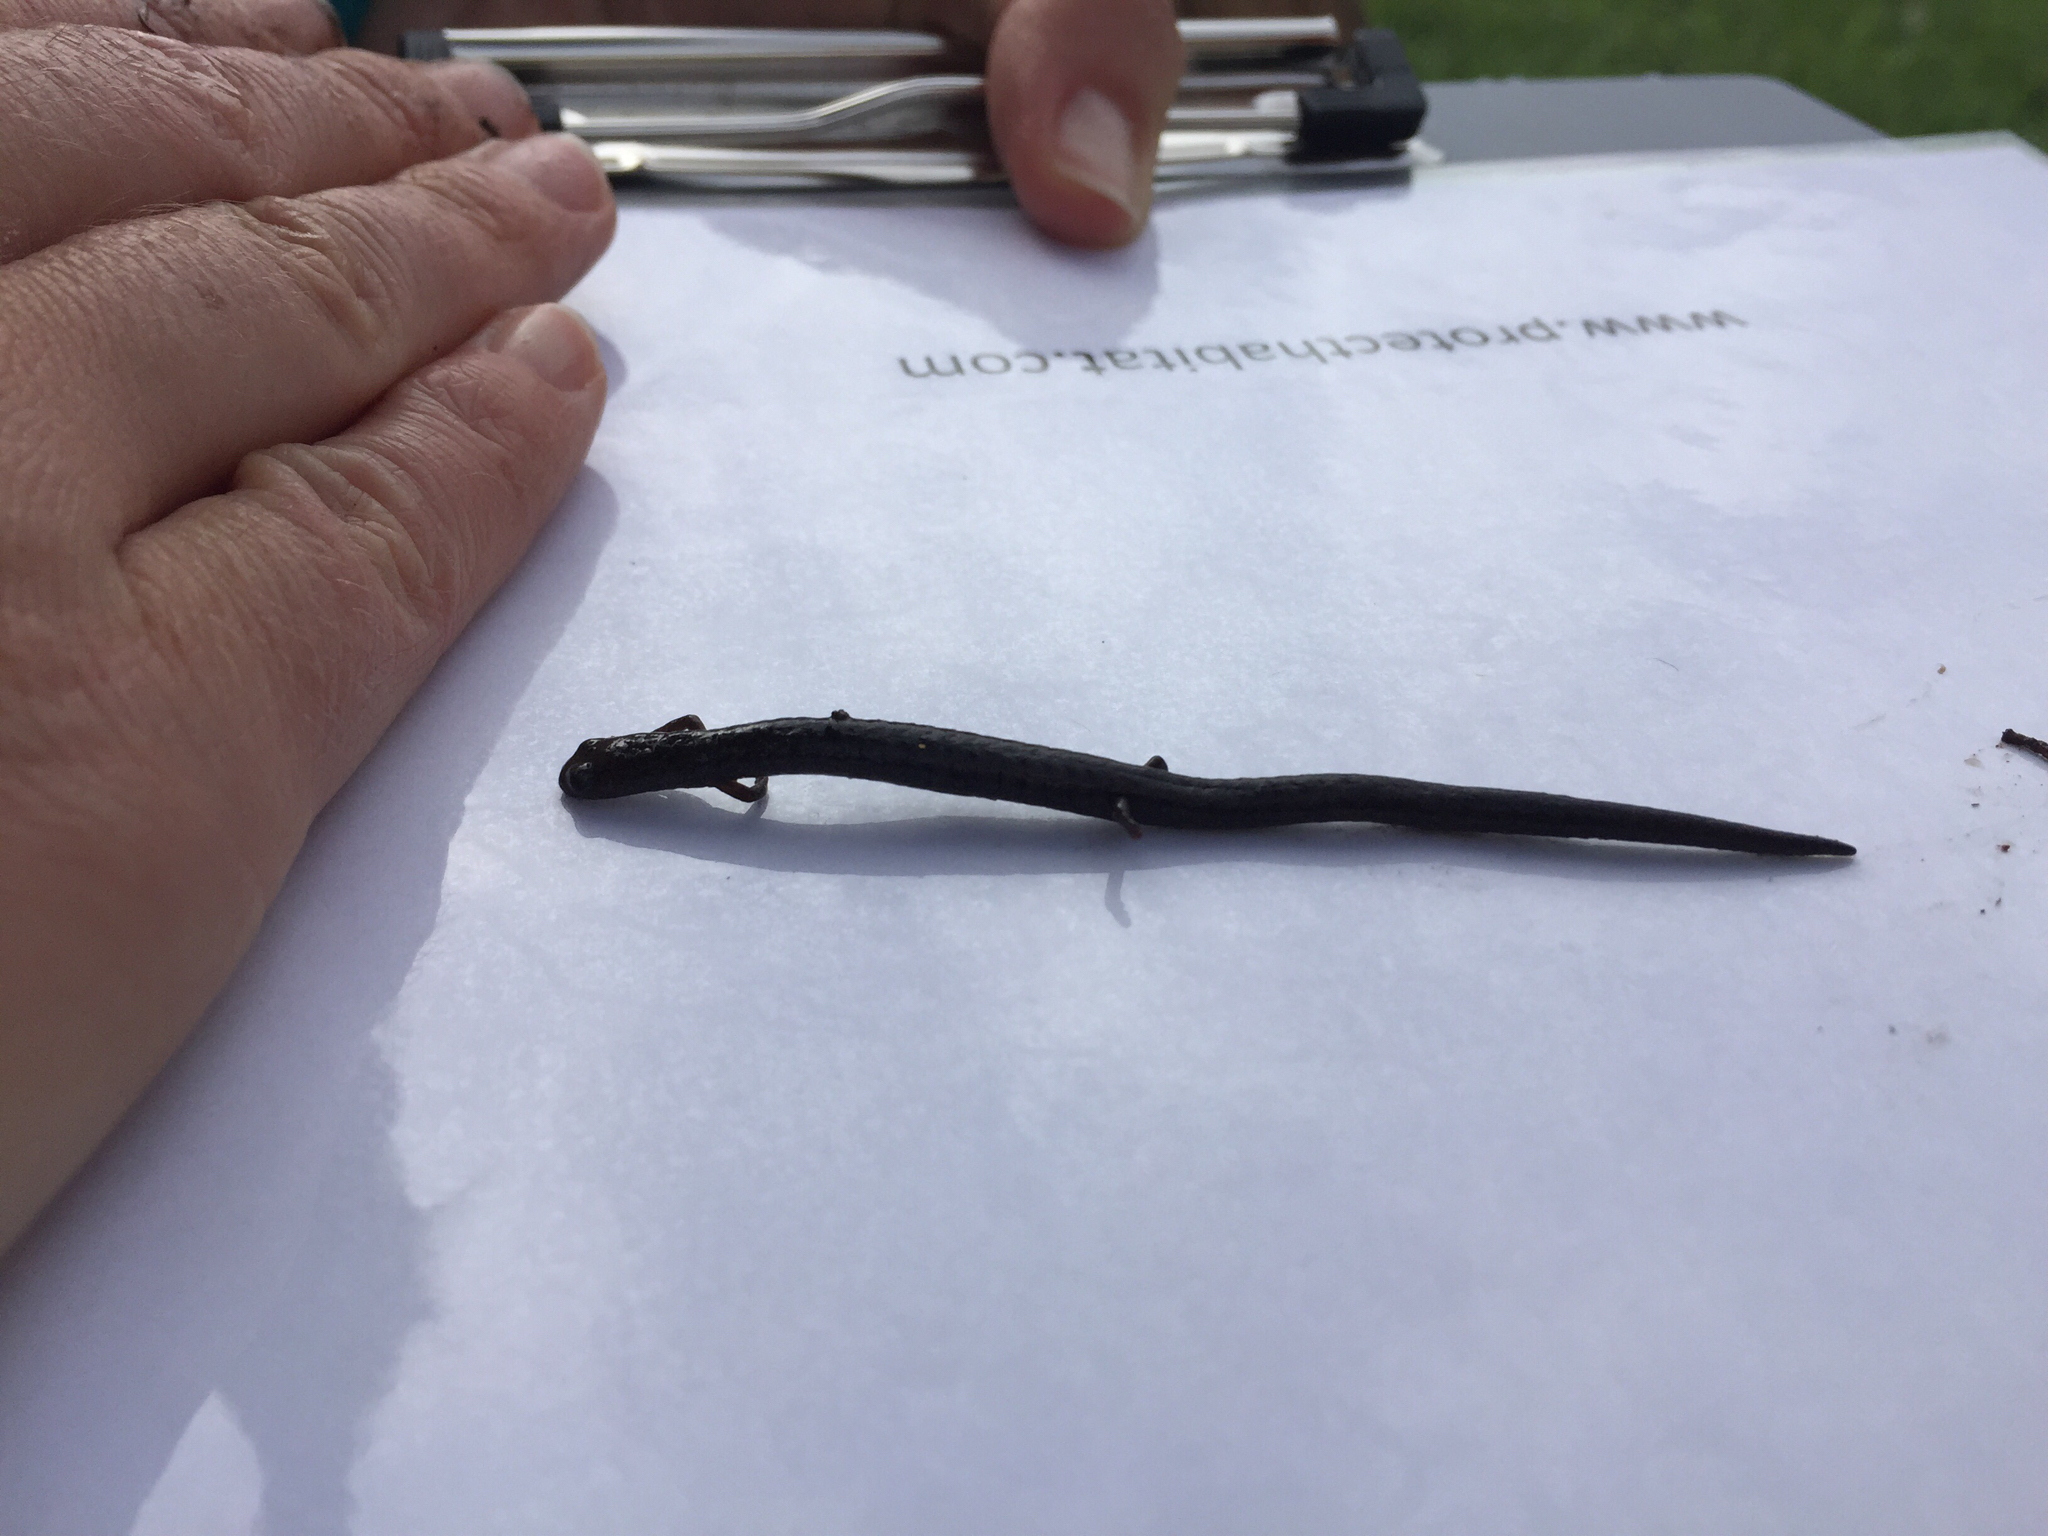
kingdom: Animalia
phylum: Chordata
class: Amphibia
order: Caudata
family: Plethodontidae
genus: Batrachoseps
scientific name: Batrachoseps attenuatus
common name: California slender salamander
